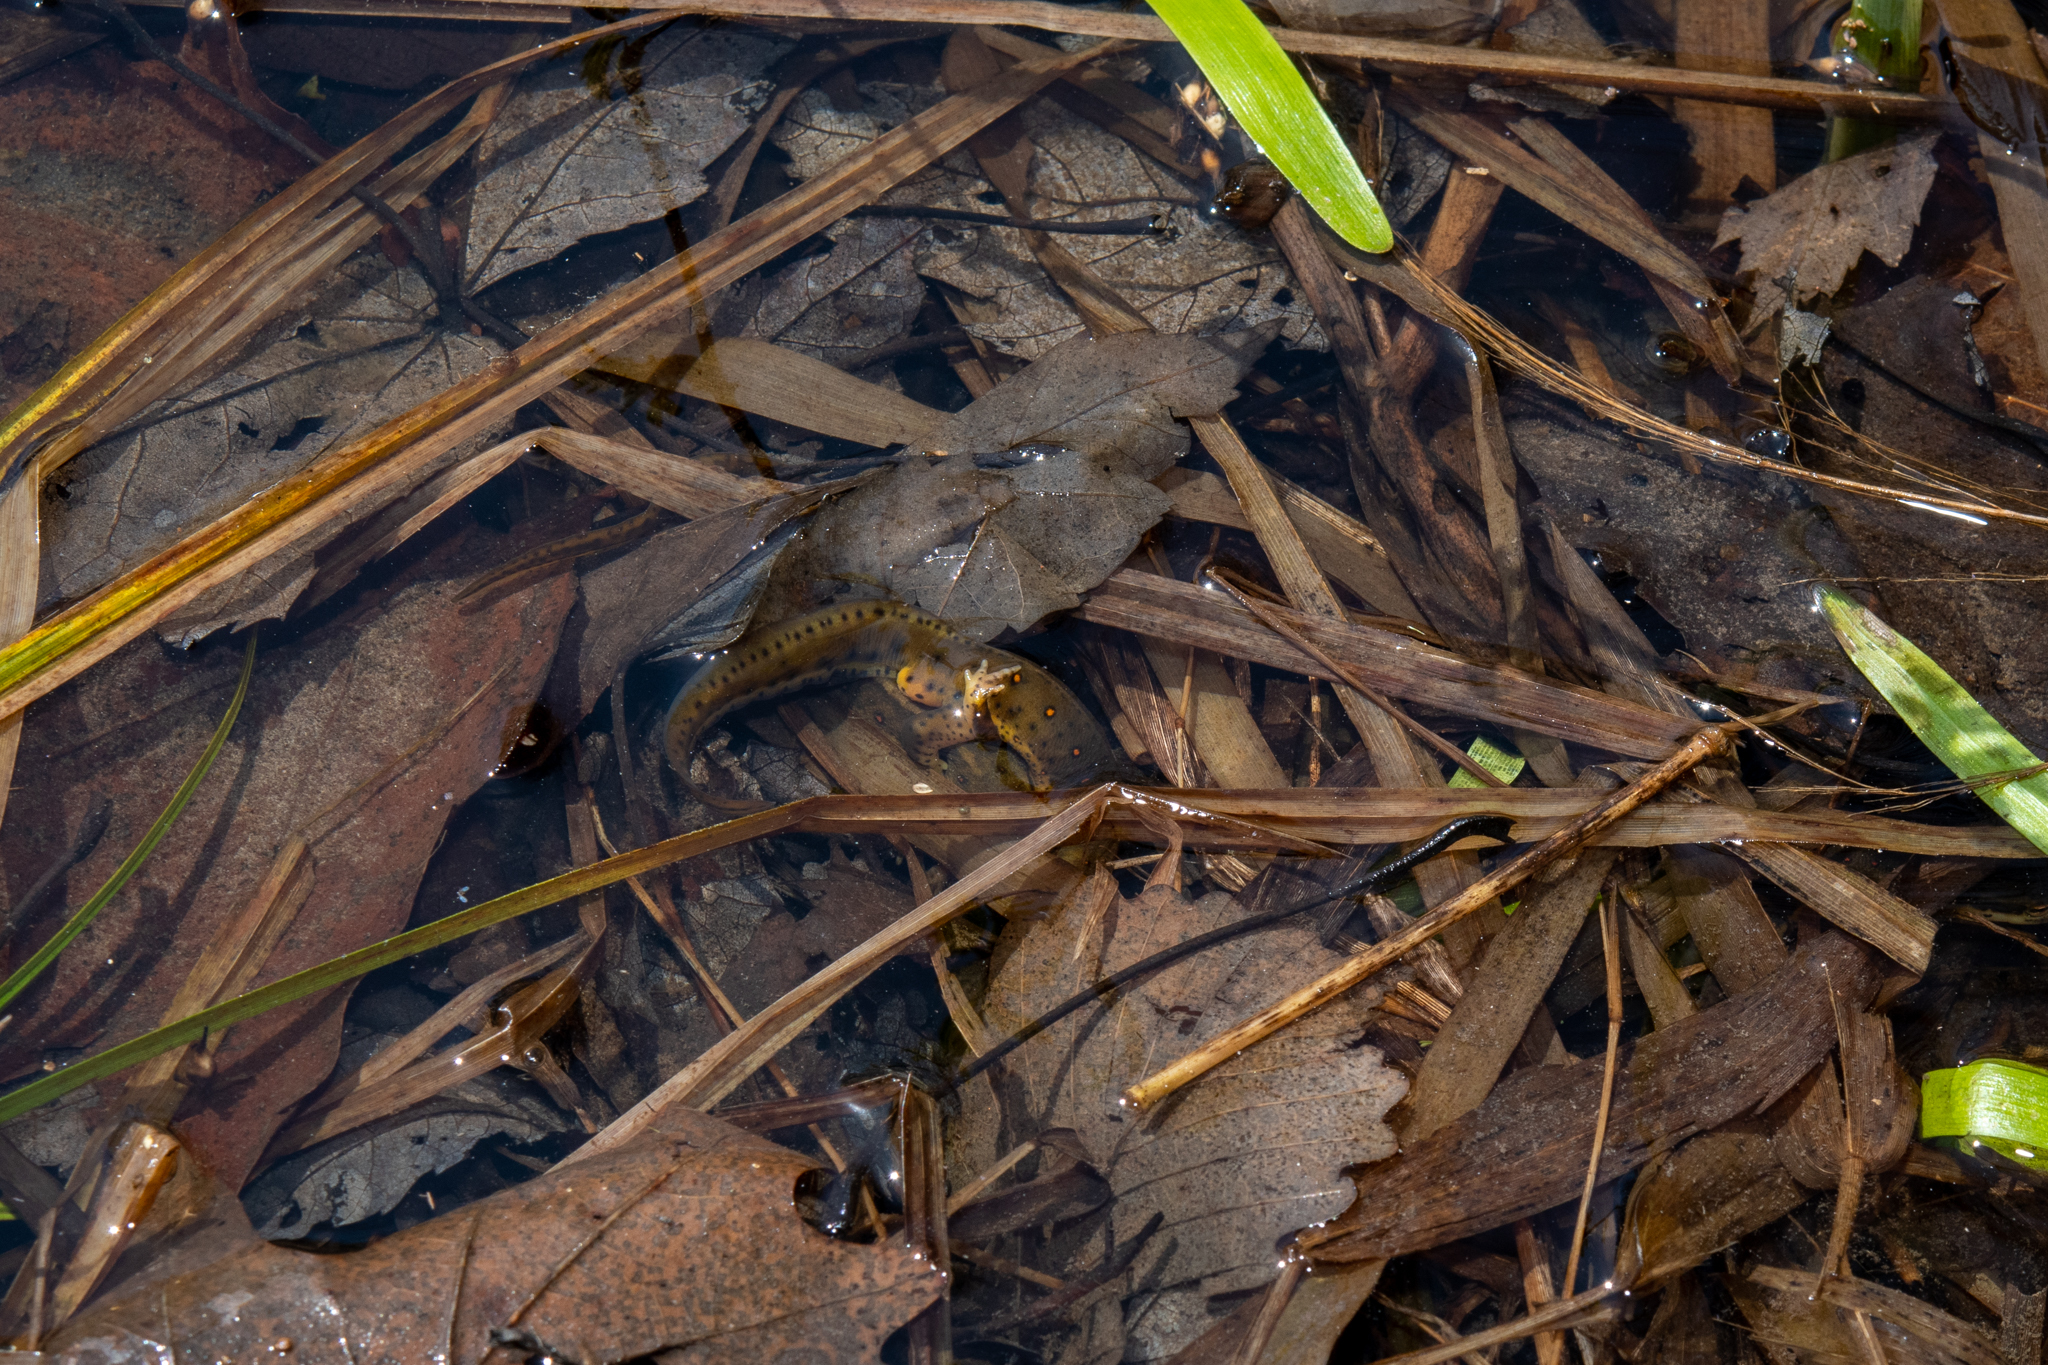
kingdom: Animalia
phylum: Chordata
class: Amphibia
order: Caudata
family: Salamandridae
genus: Notophthalmus
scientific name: Notophthalmus viridescens
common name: Eastern newt
